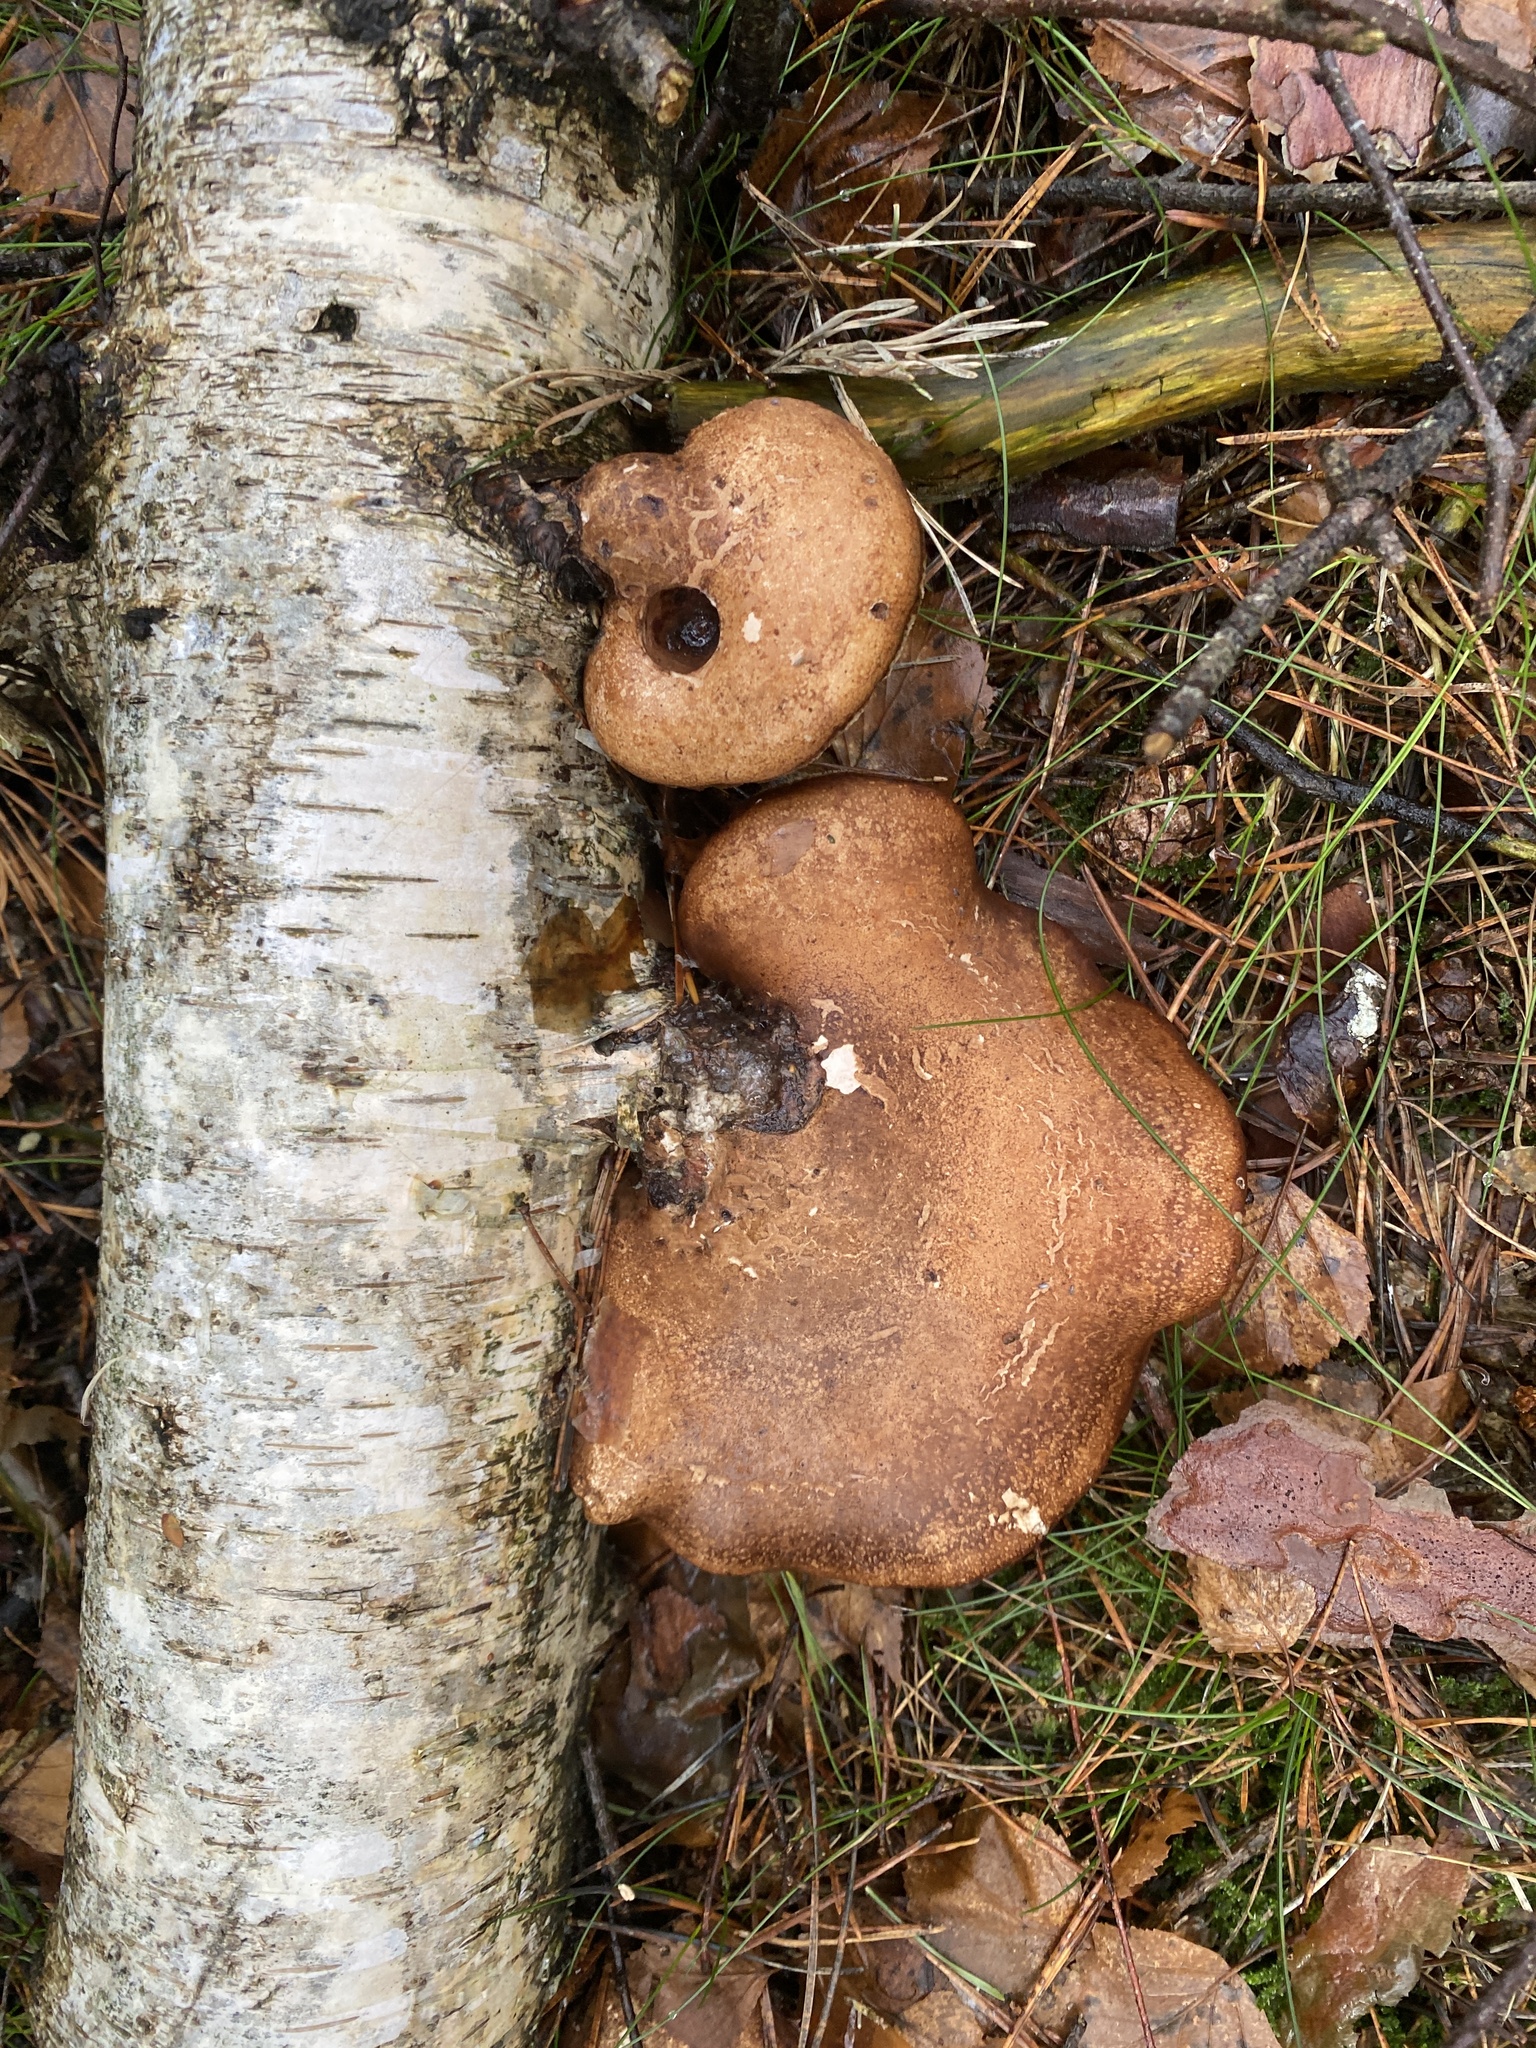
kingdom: Fungi
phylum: Basidiomycota
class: Agaricomycetes
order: Polyporales
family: Fomitopsidaceae
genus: Fomitopsis
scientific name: Fomitopsis betulina
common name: Birch polypore
